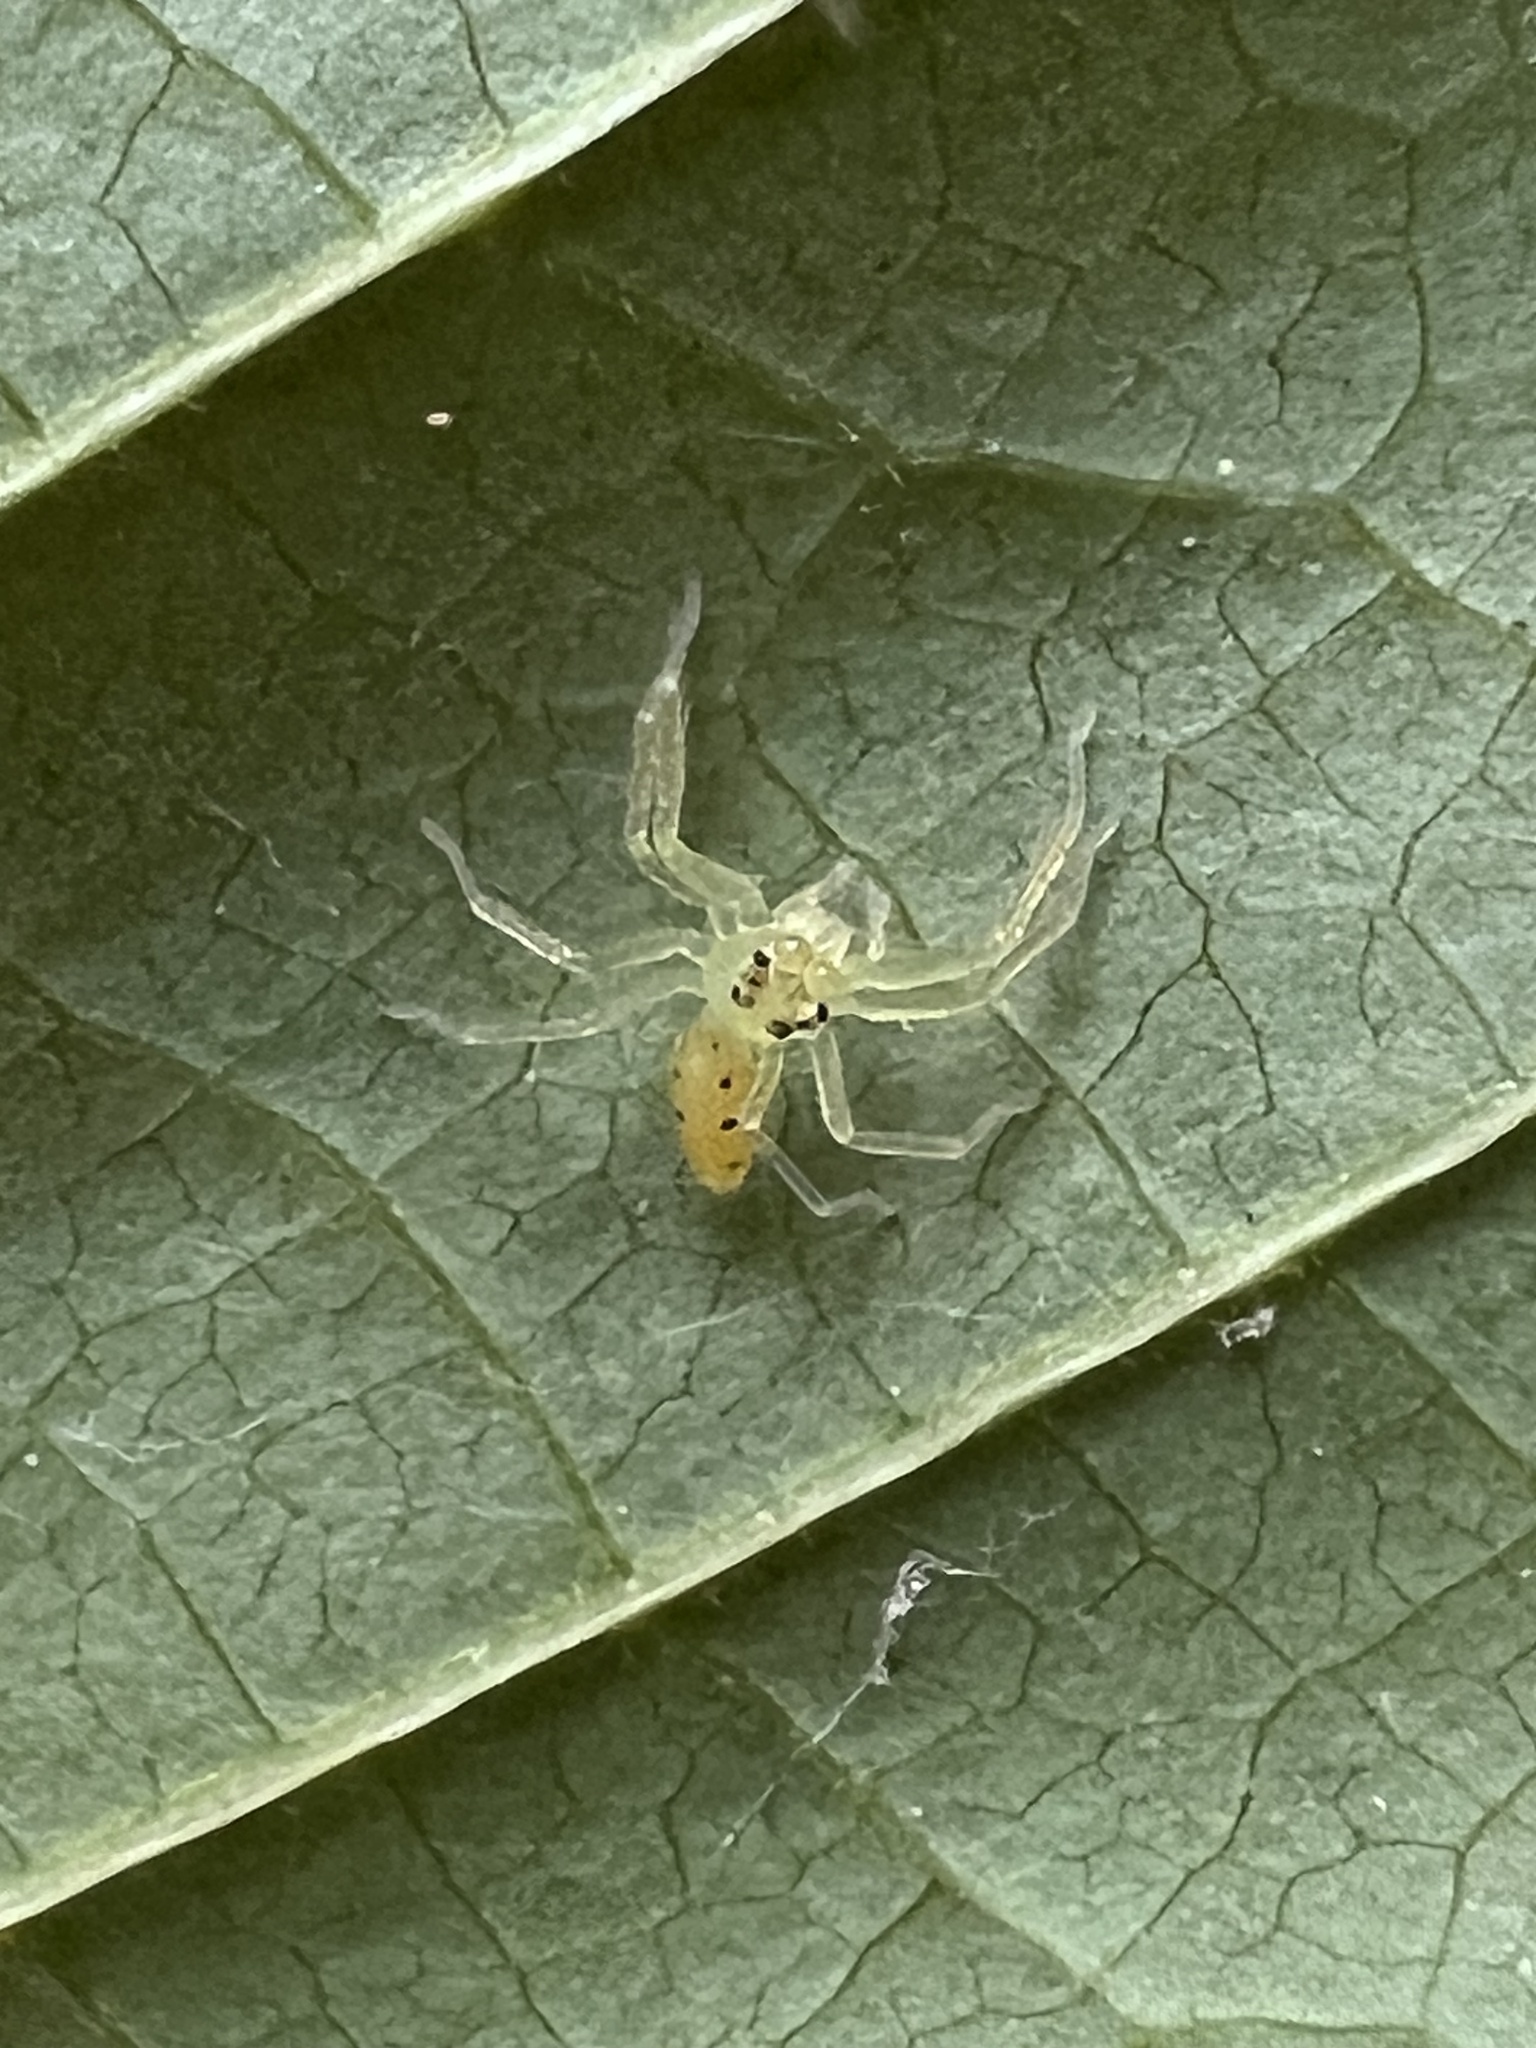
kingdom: Animalia
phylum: Arthropoda
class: Arachnida
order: Araneae
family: Salticidae
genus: Lyssomanes
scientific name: Lyssomanes viridis
